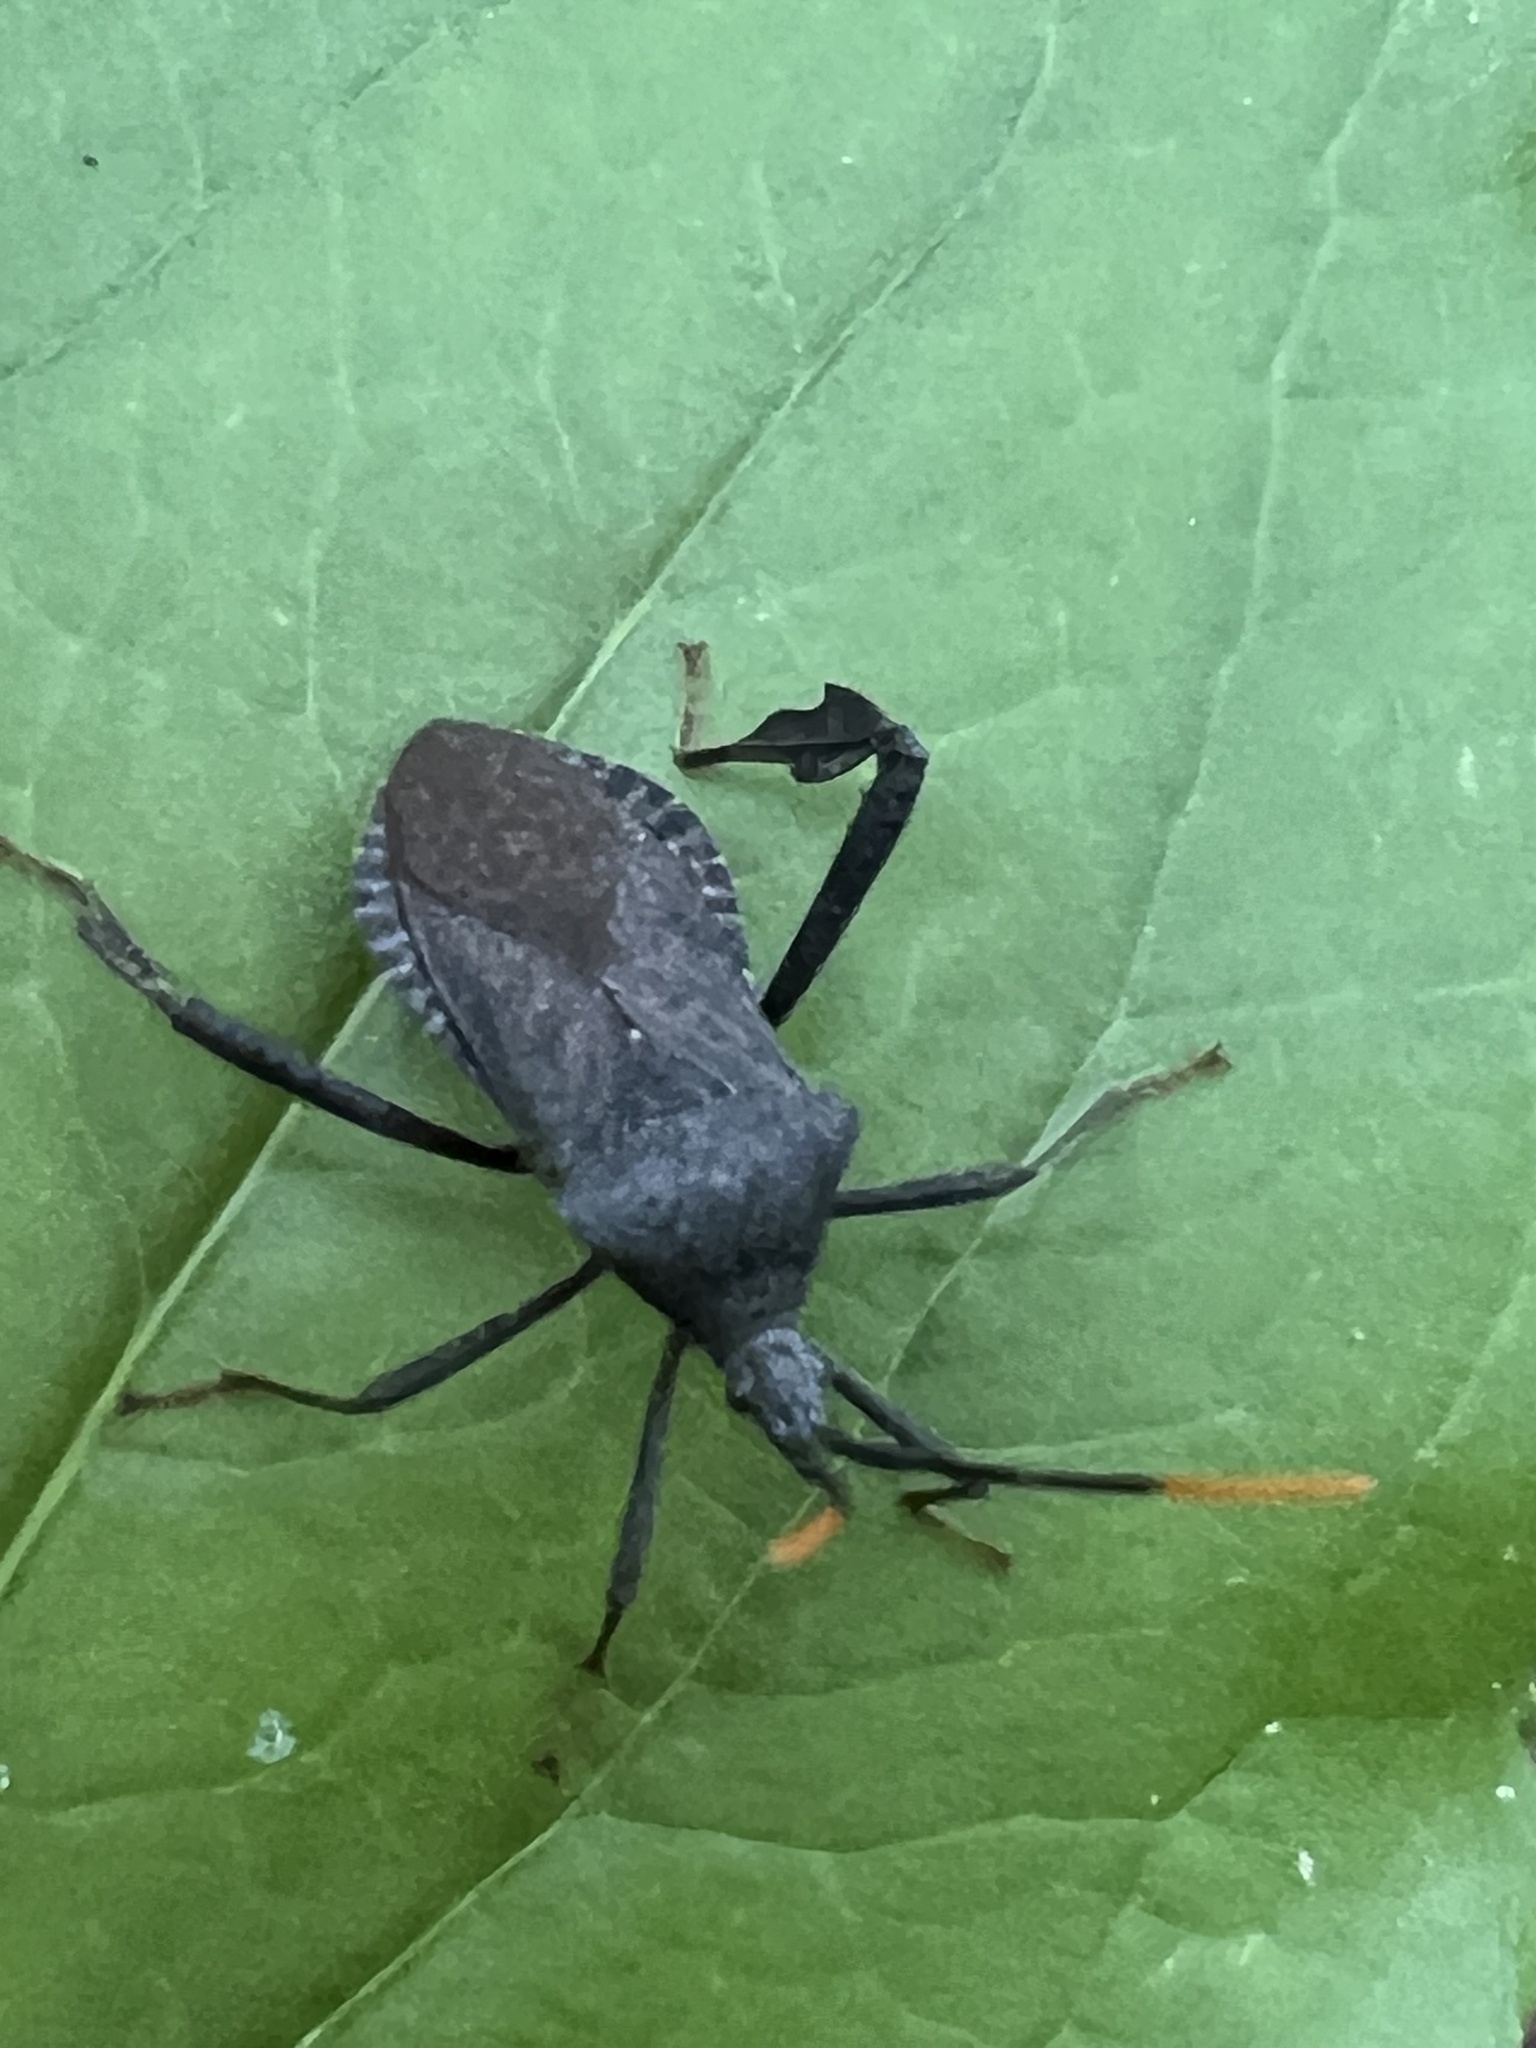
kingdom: Animalia
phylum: Arthropoda
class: Insecta
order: Hemiptera
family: Coreidae
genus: Acanthocephala
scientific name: Acanthocephala terminalis
